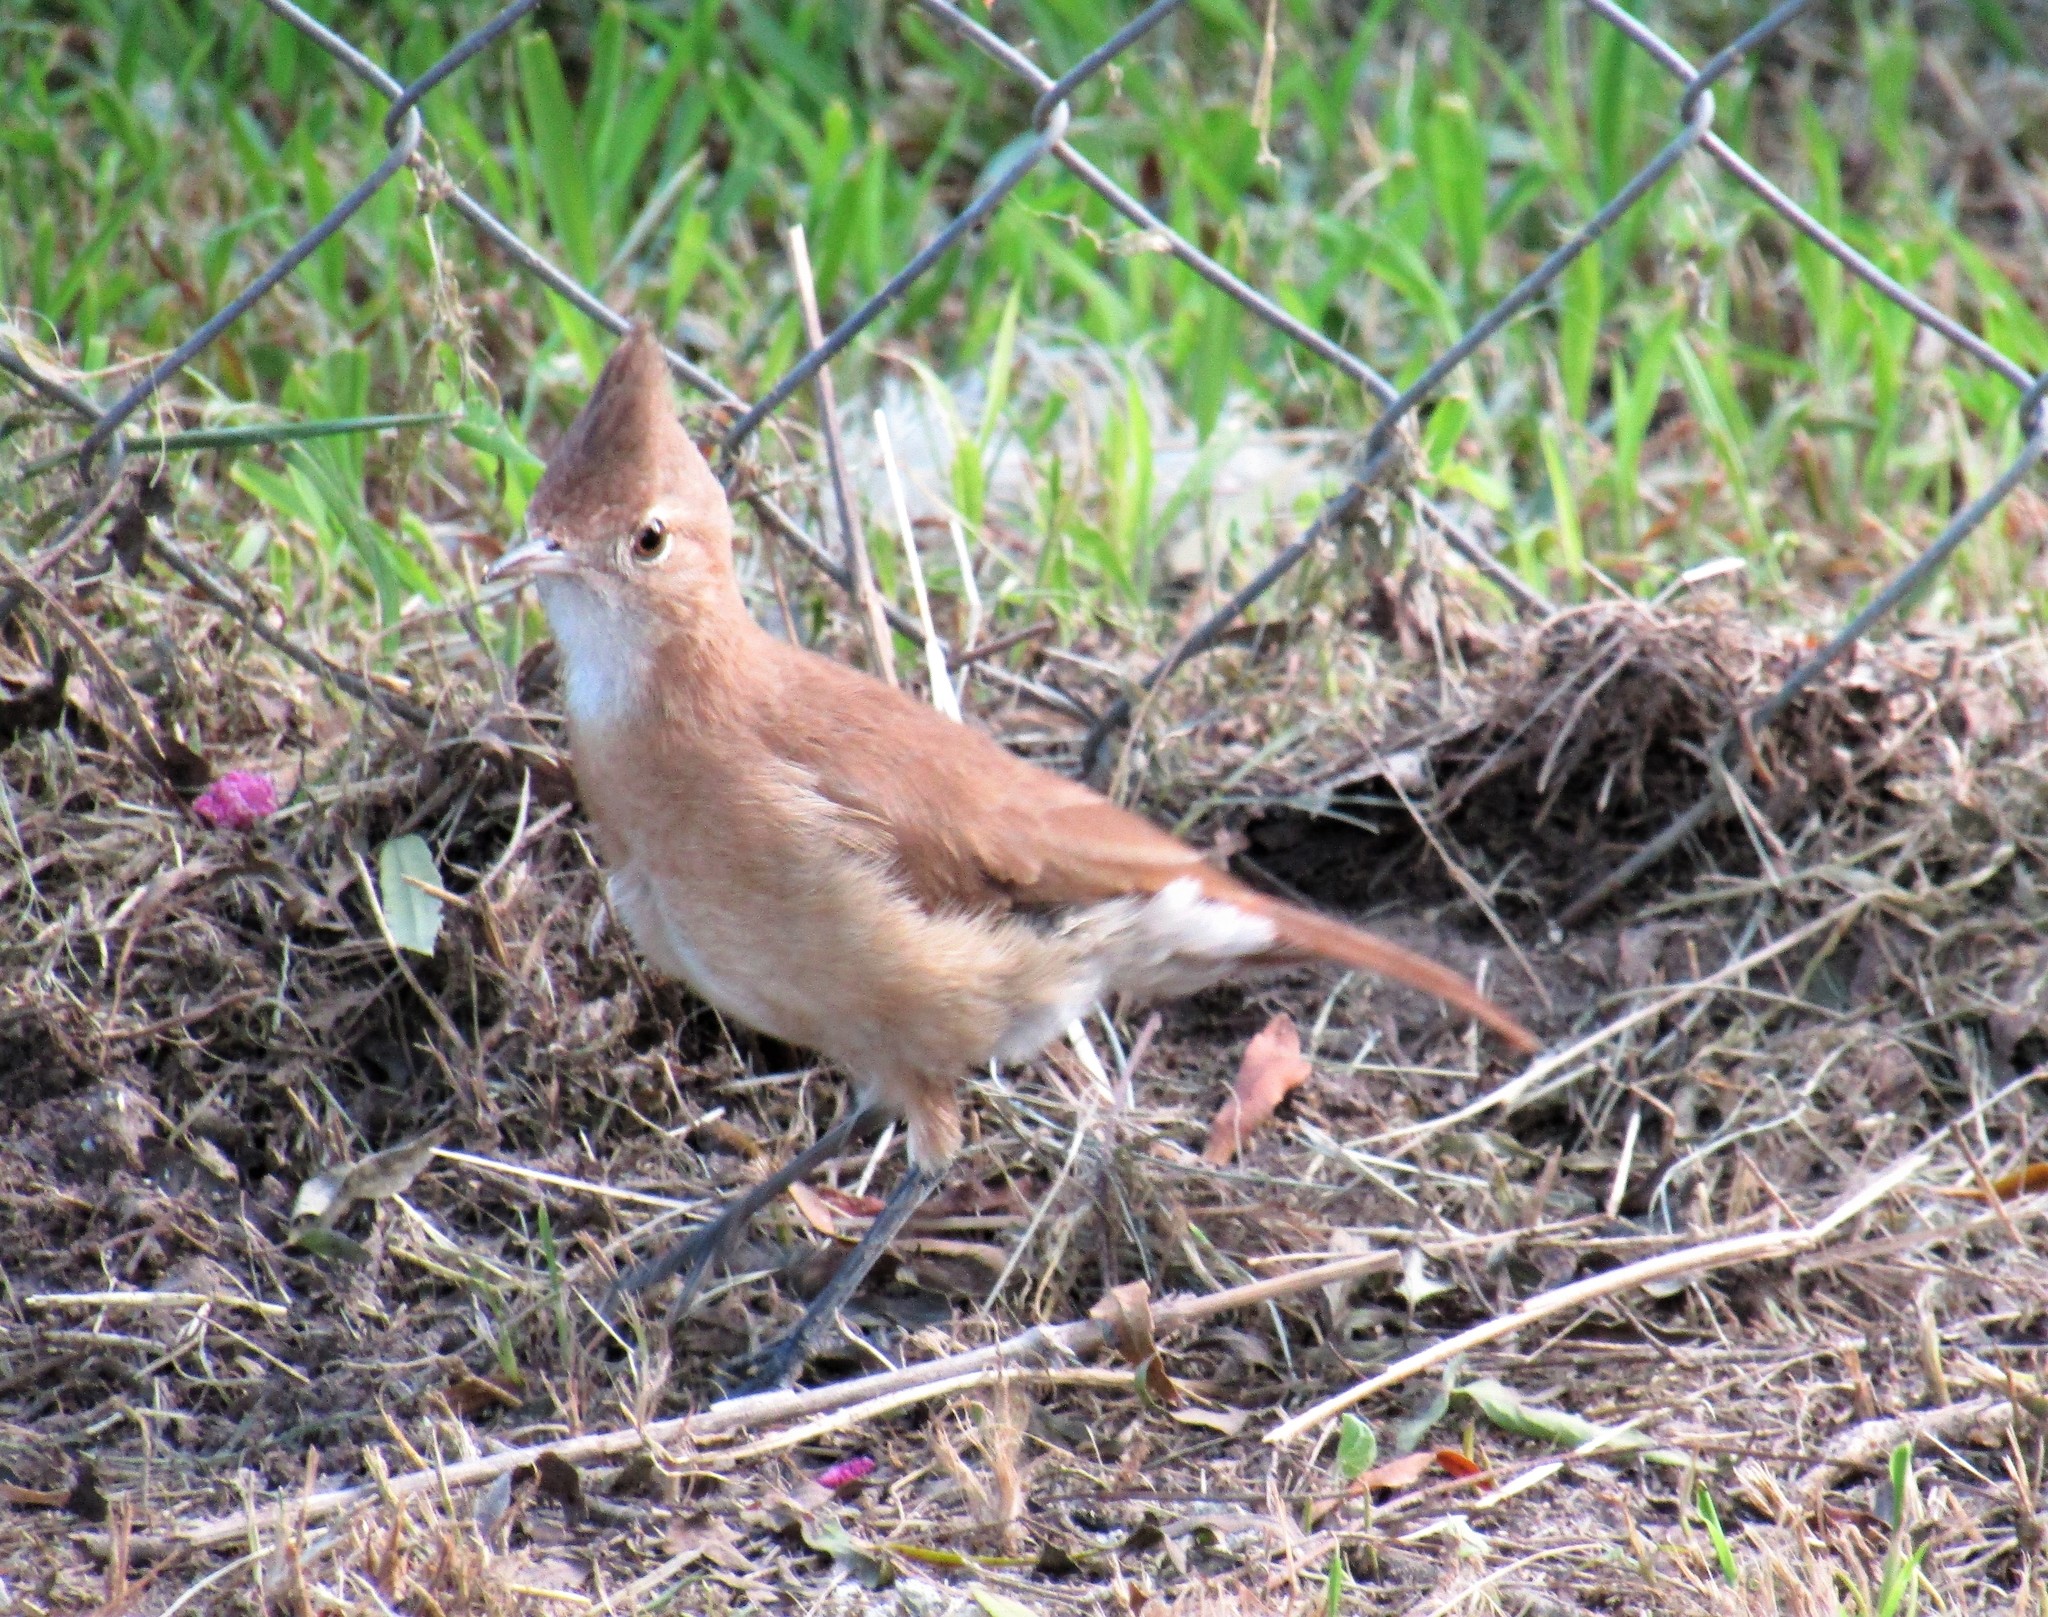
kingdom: Animalia
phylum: Chordata
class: Aves
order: Passeriformes
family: Furnariidae
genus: Furnarius
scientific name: Furnarius cristatus
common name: Crested hornero
